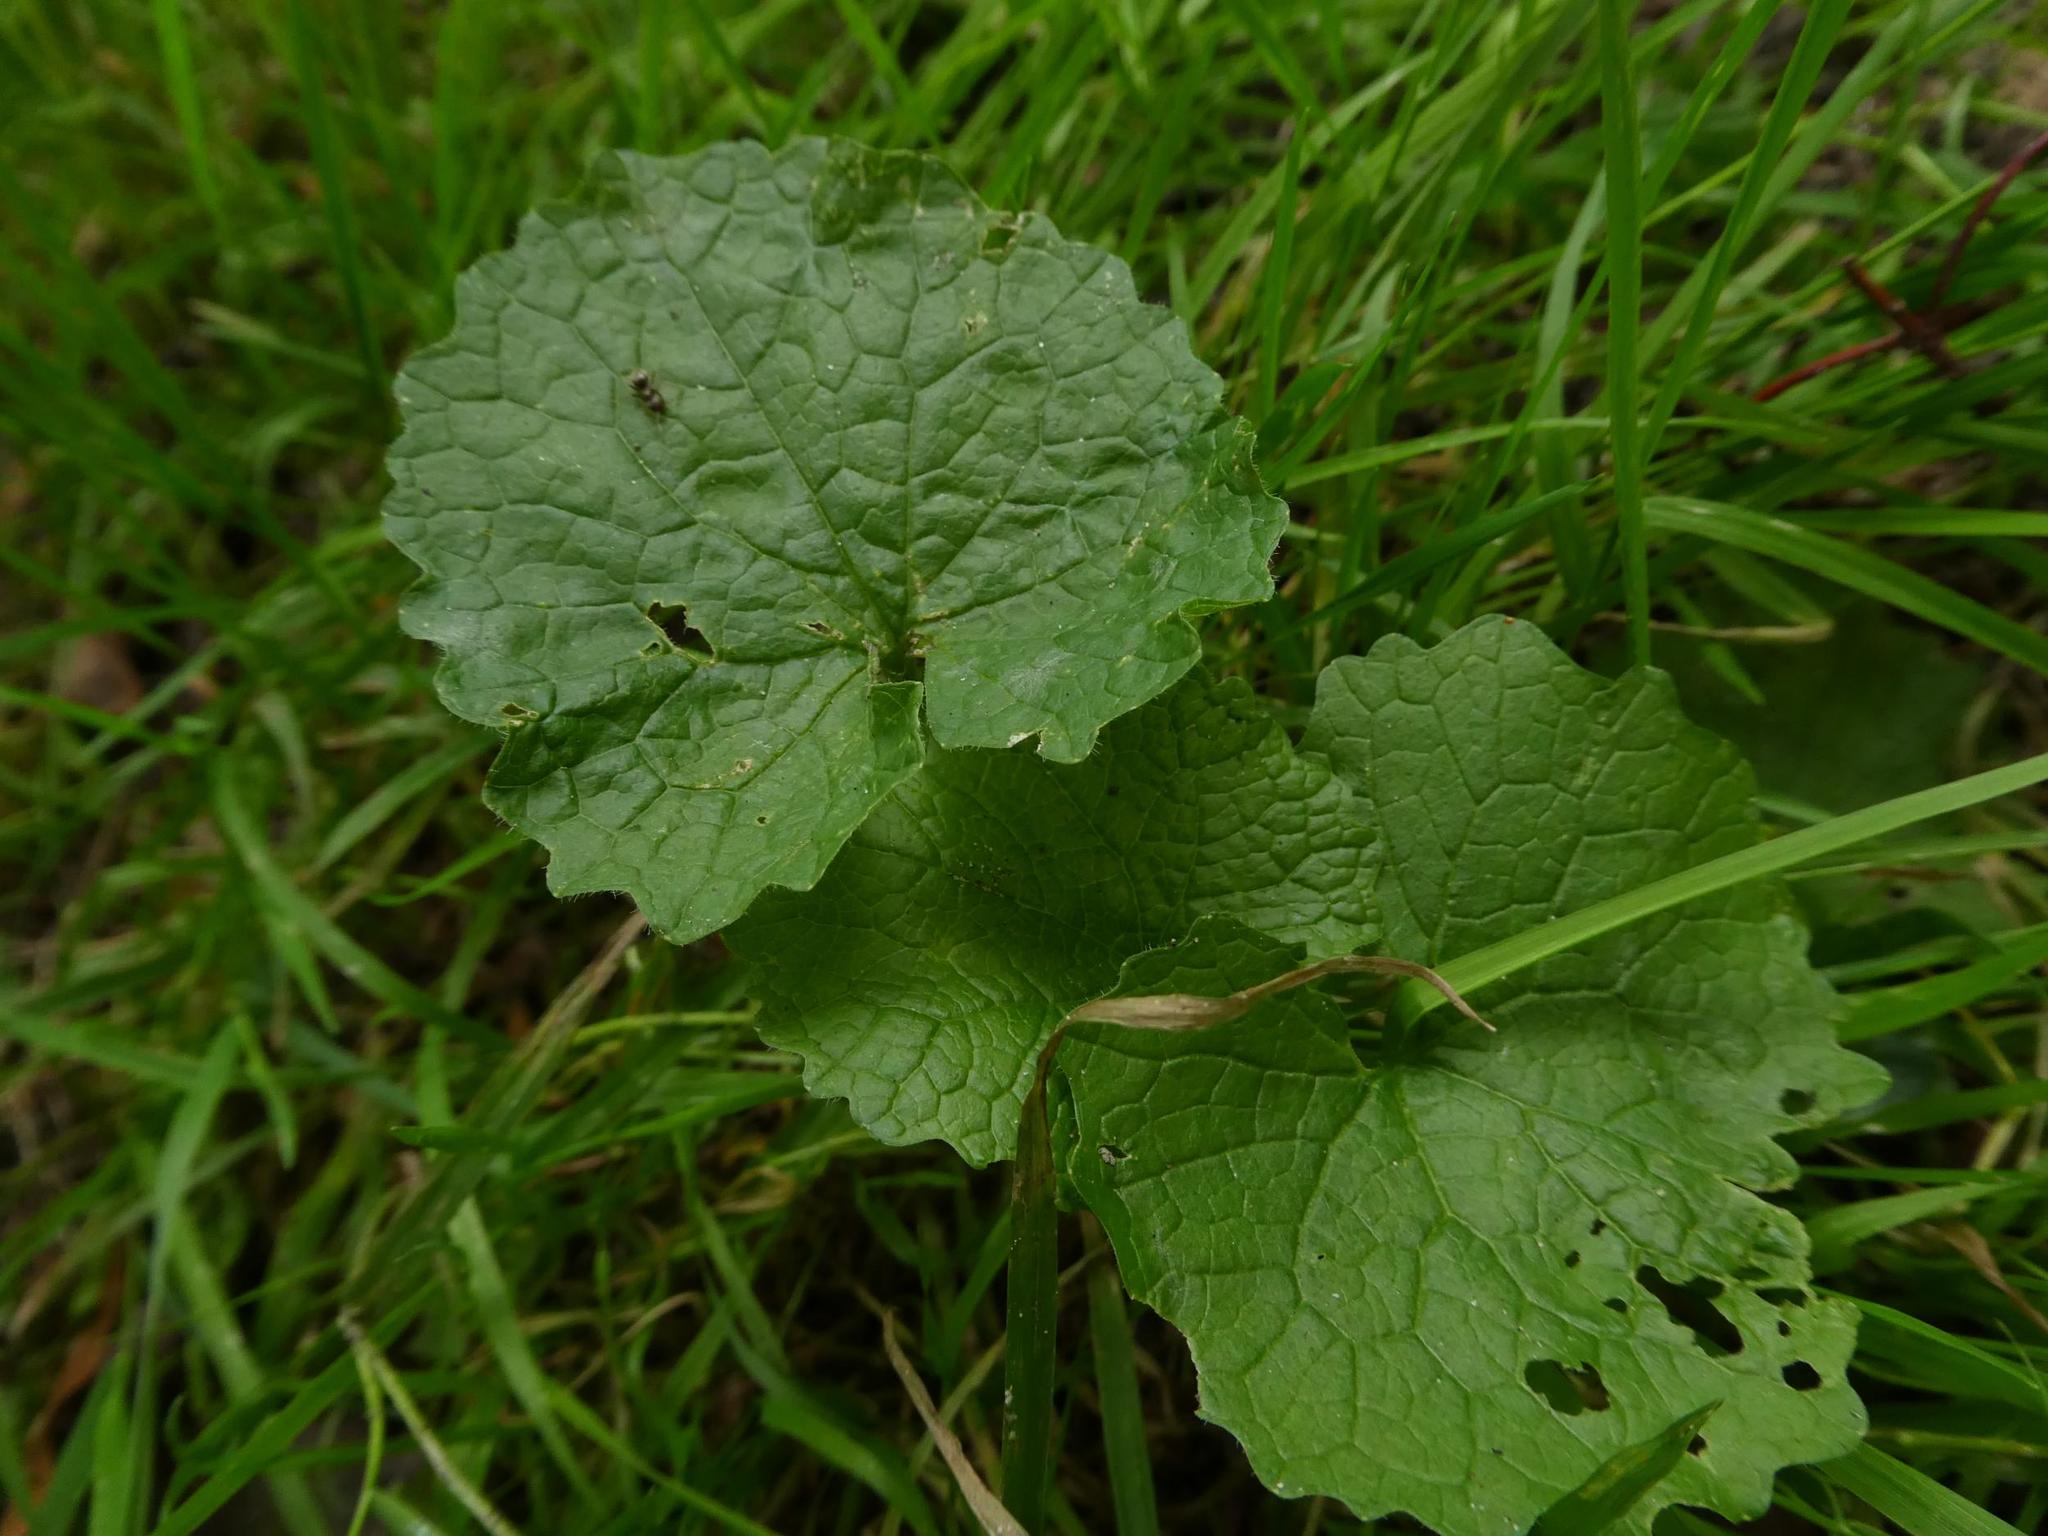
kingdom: Plantae
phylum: Tracheophyta
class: Magnoliopsida
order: Brassicales
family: Brassicaceae
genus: Alliaria
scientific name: Alliaria petiolata
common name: Garlic mustard
